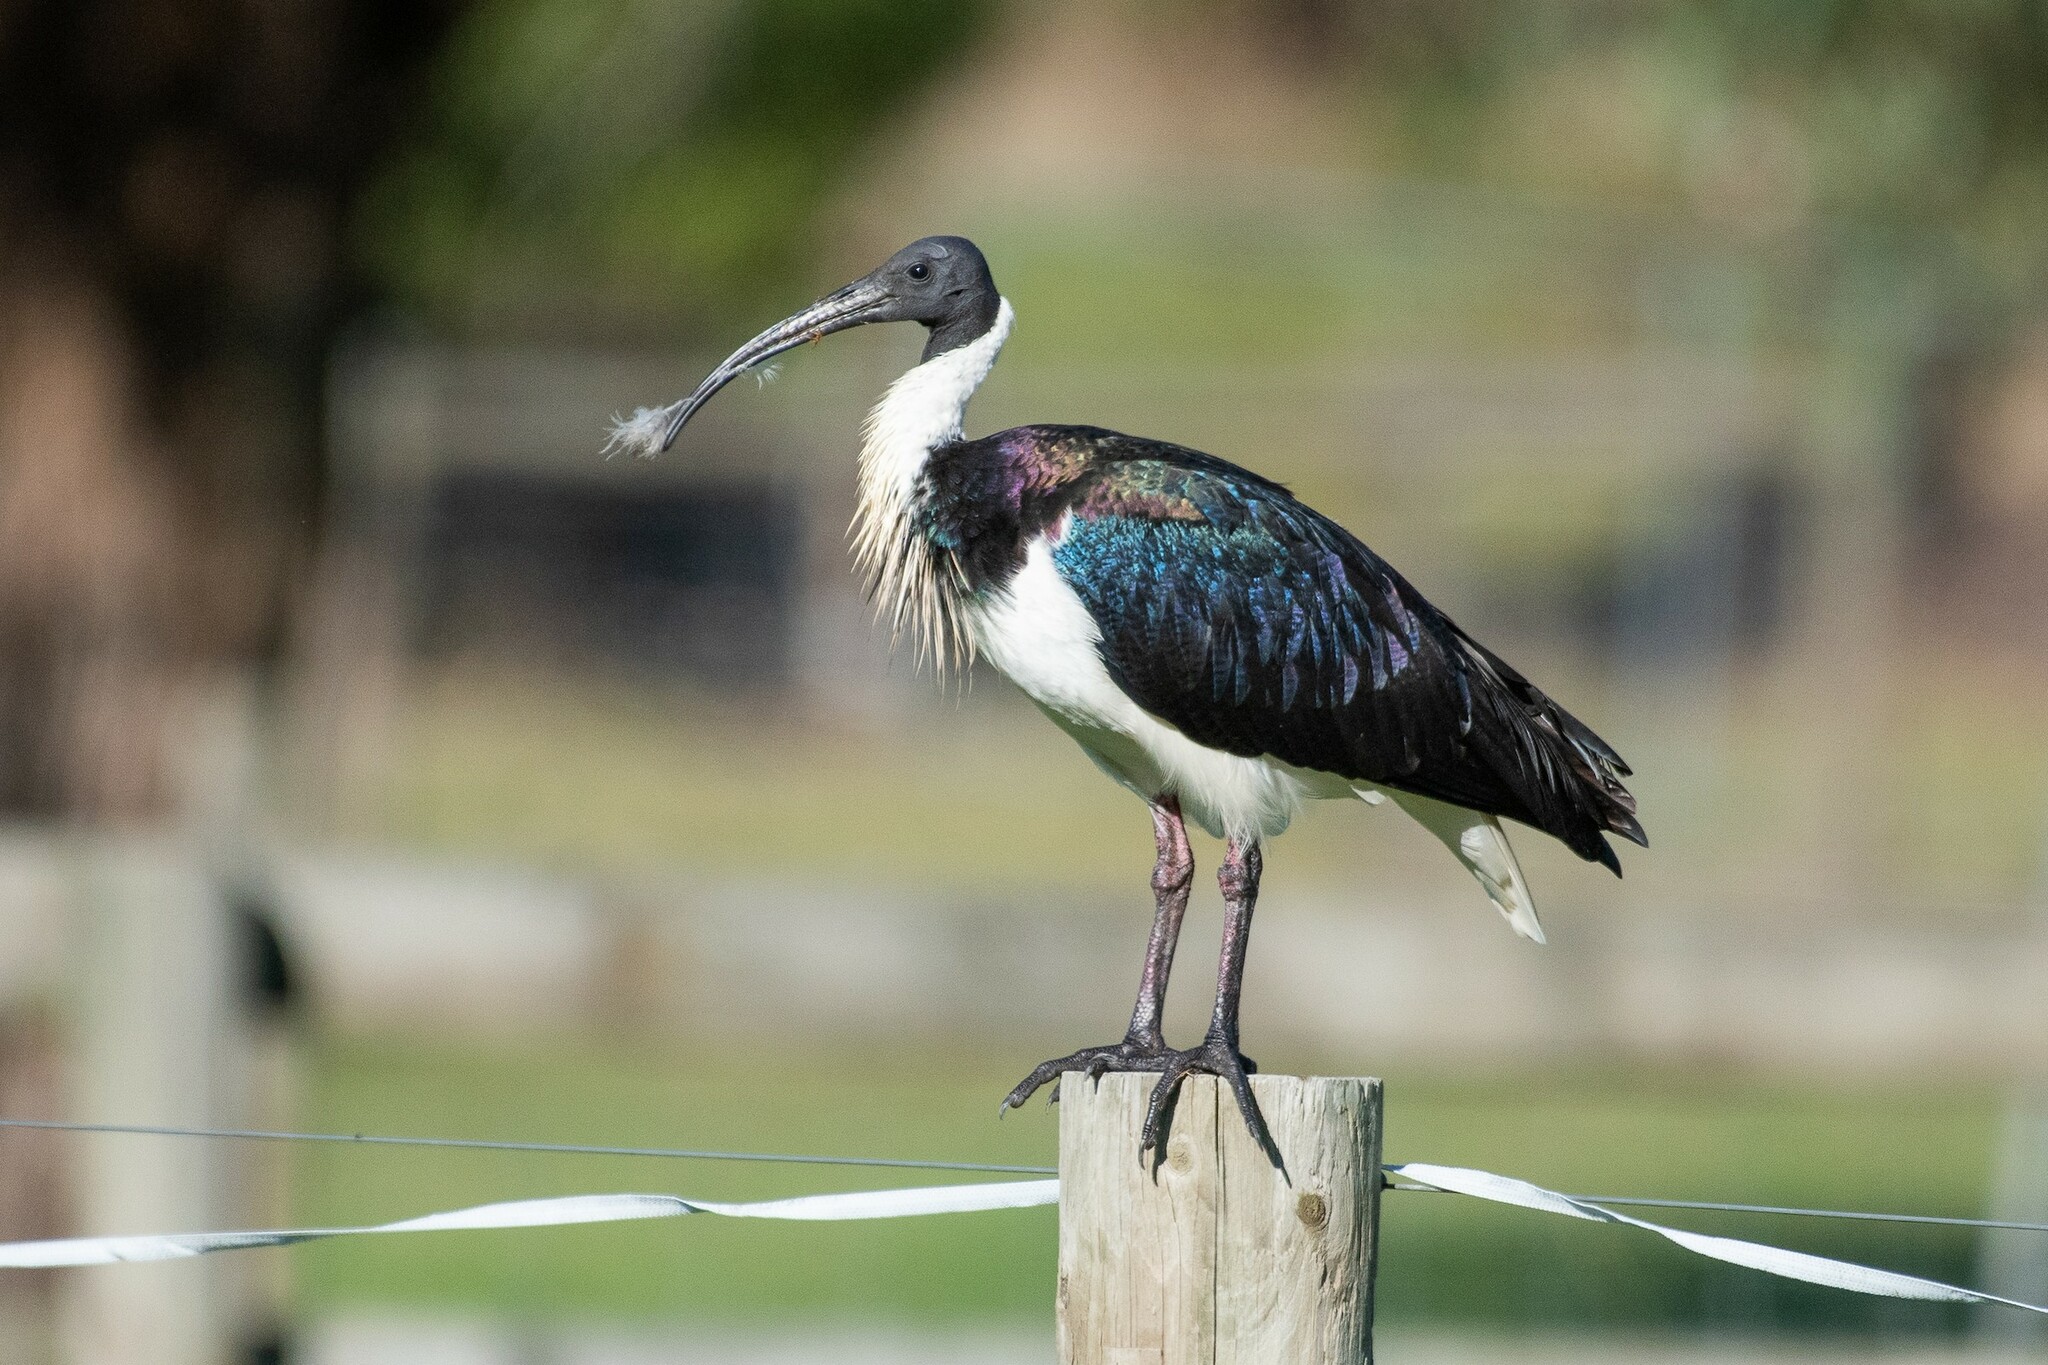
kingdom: Animalia
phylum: Chordata
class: Aves
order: Pelecaniformes
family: Threskiornithidae
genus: Threskiornis
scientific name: Threskiornis spinicollis
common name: Straw-necked ibis
